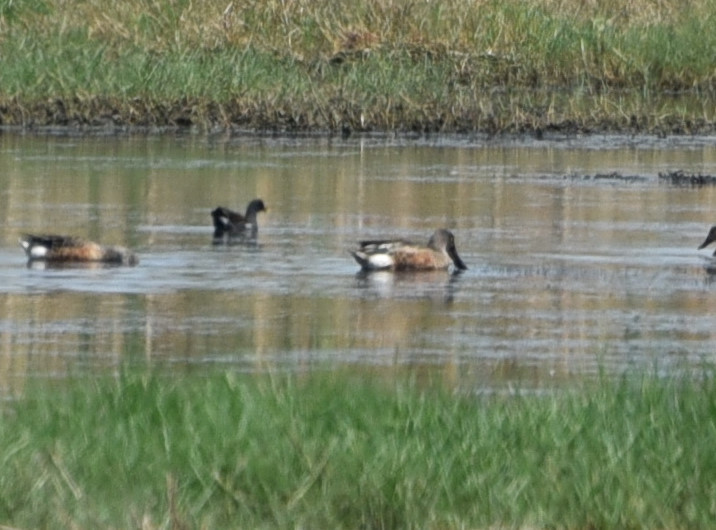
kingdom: Animalia
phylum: Chordata
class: Aves
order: Anseriformes
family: Anatidae
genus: Spatula
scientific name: Spatula clypeata
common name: Northern shoveler
